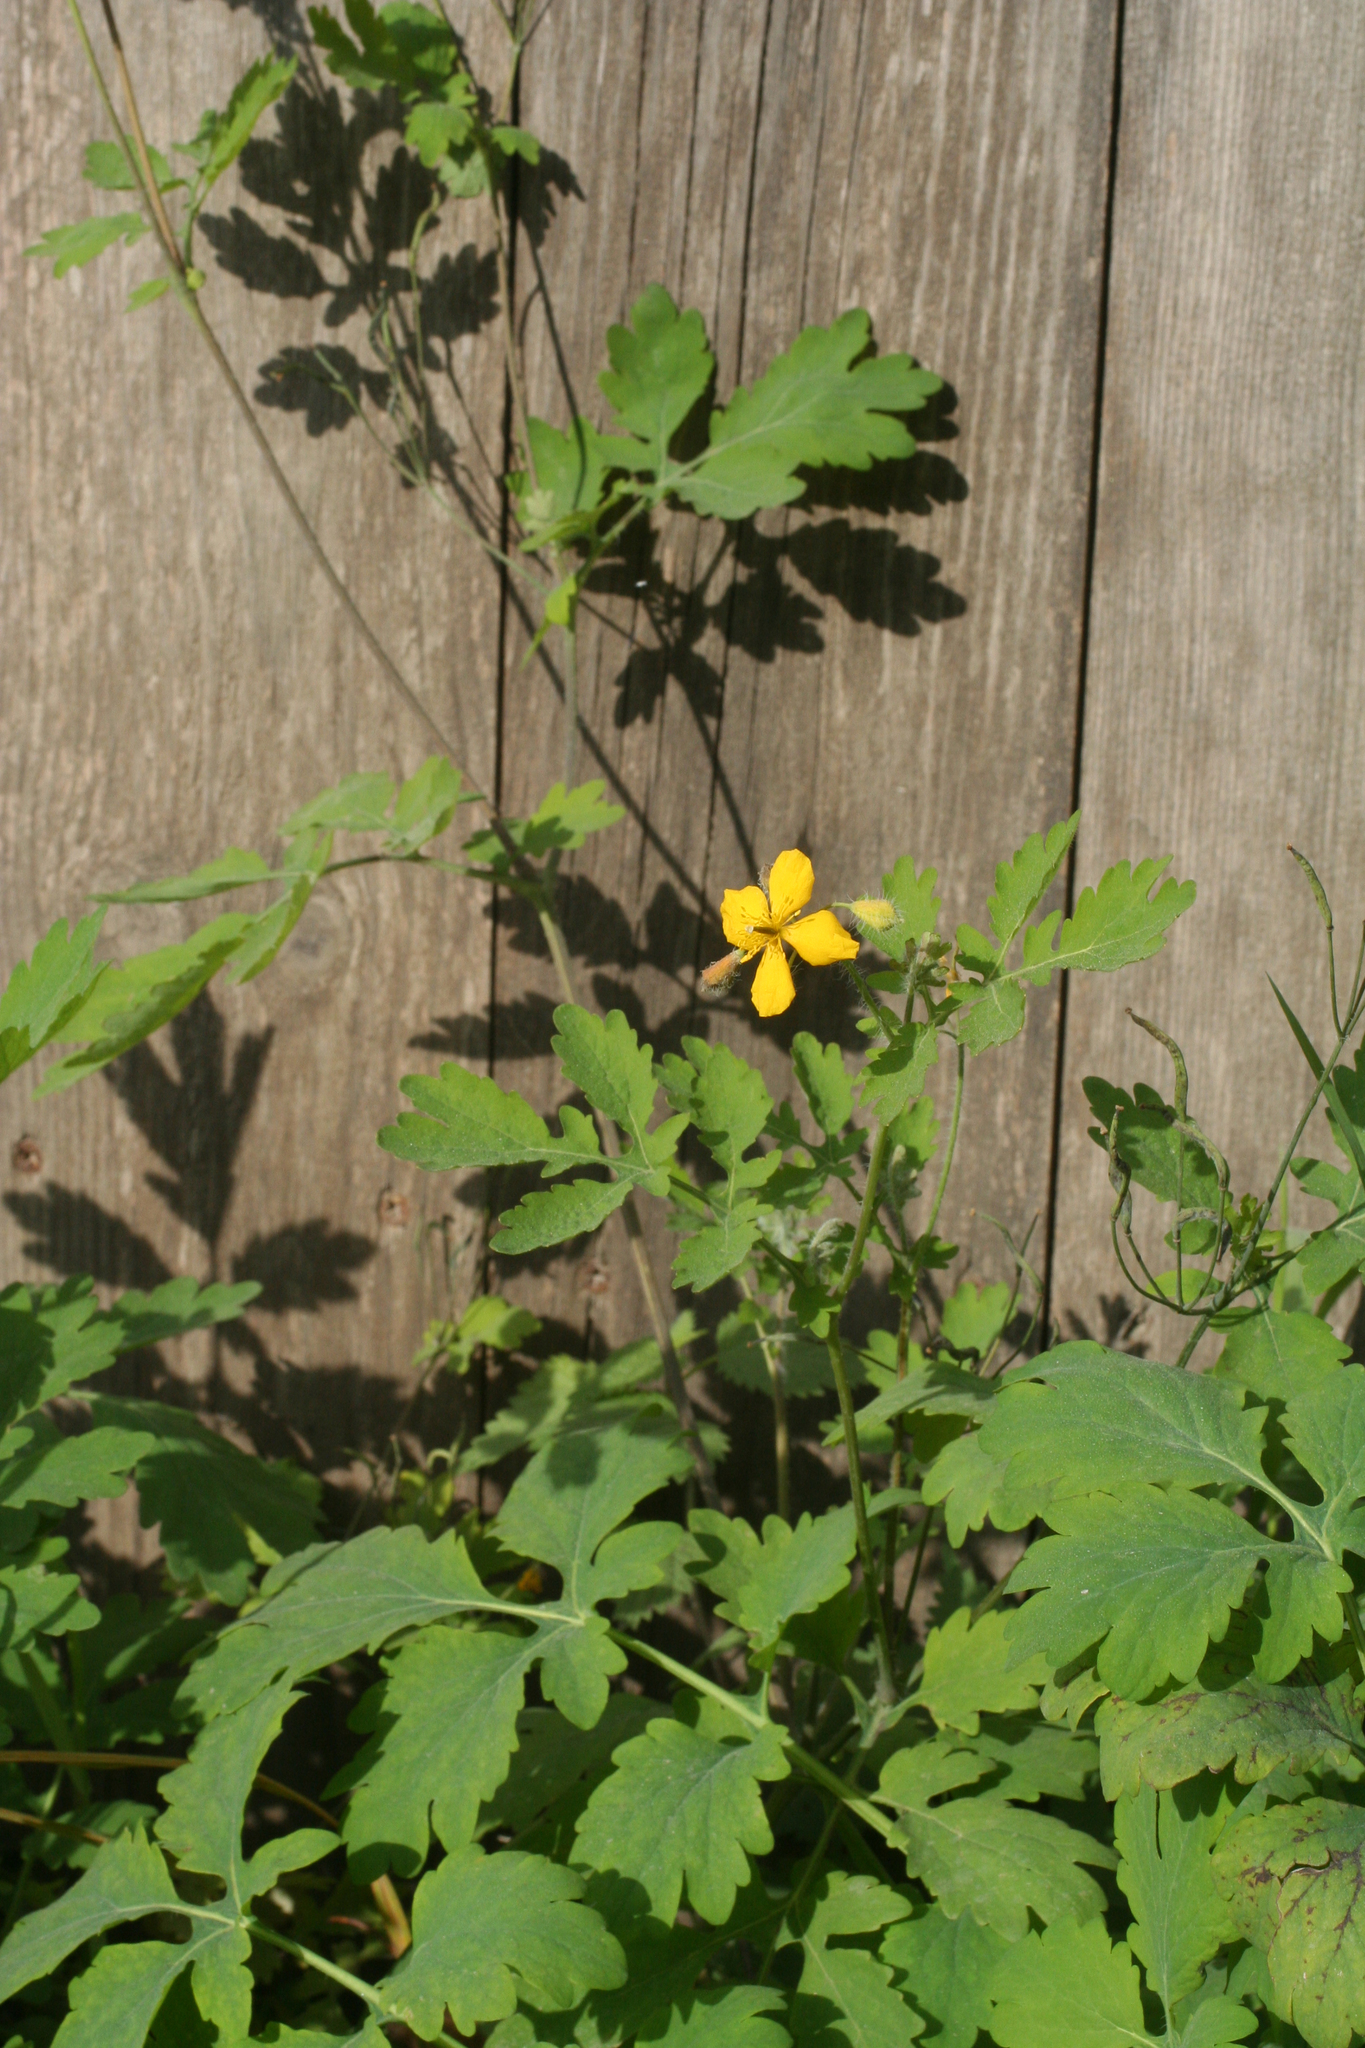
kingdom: Plantae
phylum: Tracheophyta
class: Magnoliopsida
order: Ranunculales
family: Papaveraceae
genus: Chelidonium
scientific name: Chelidonium majus
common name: Greater celandine
